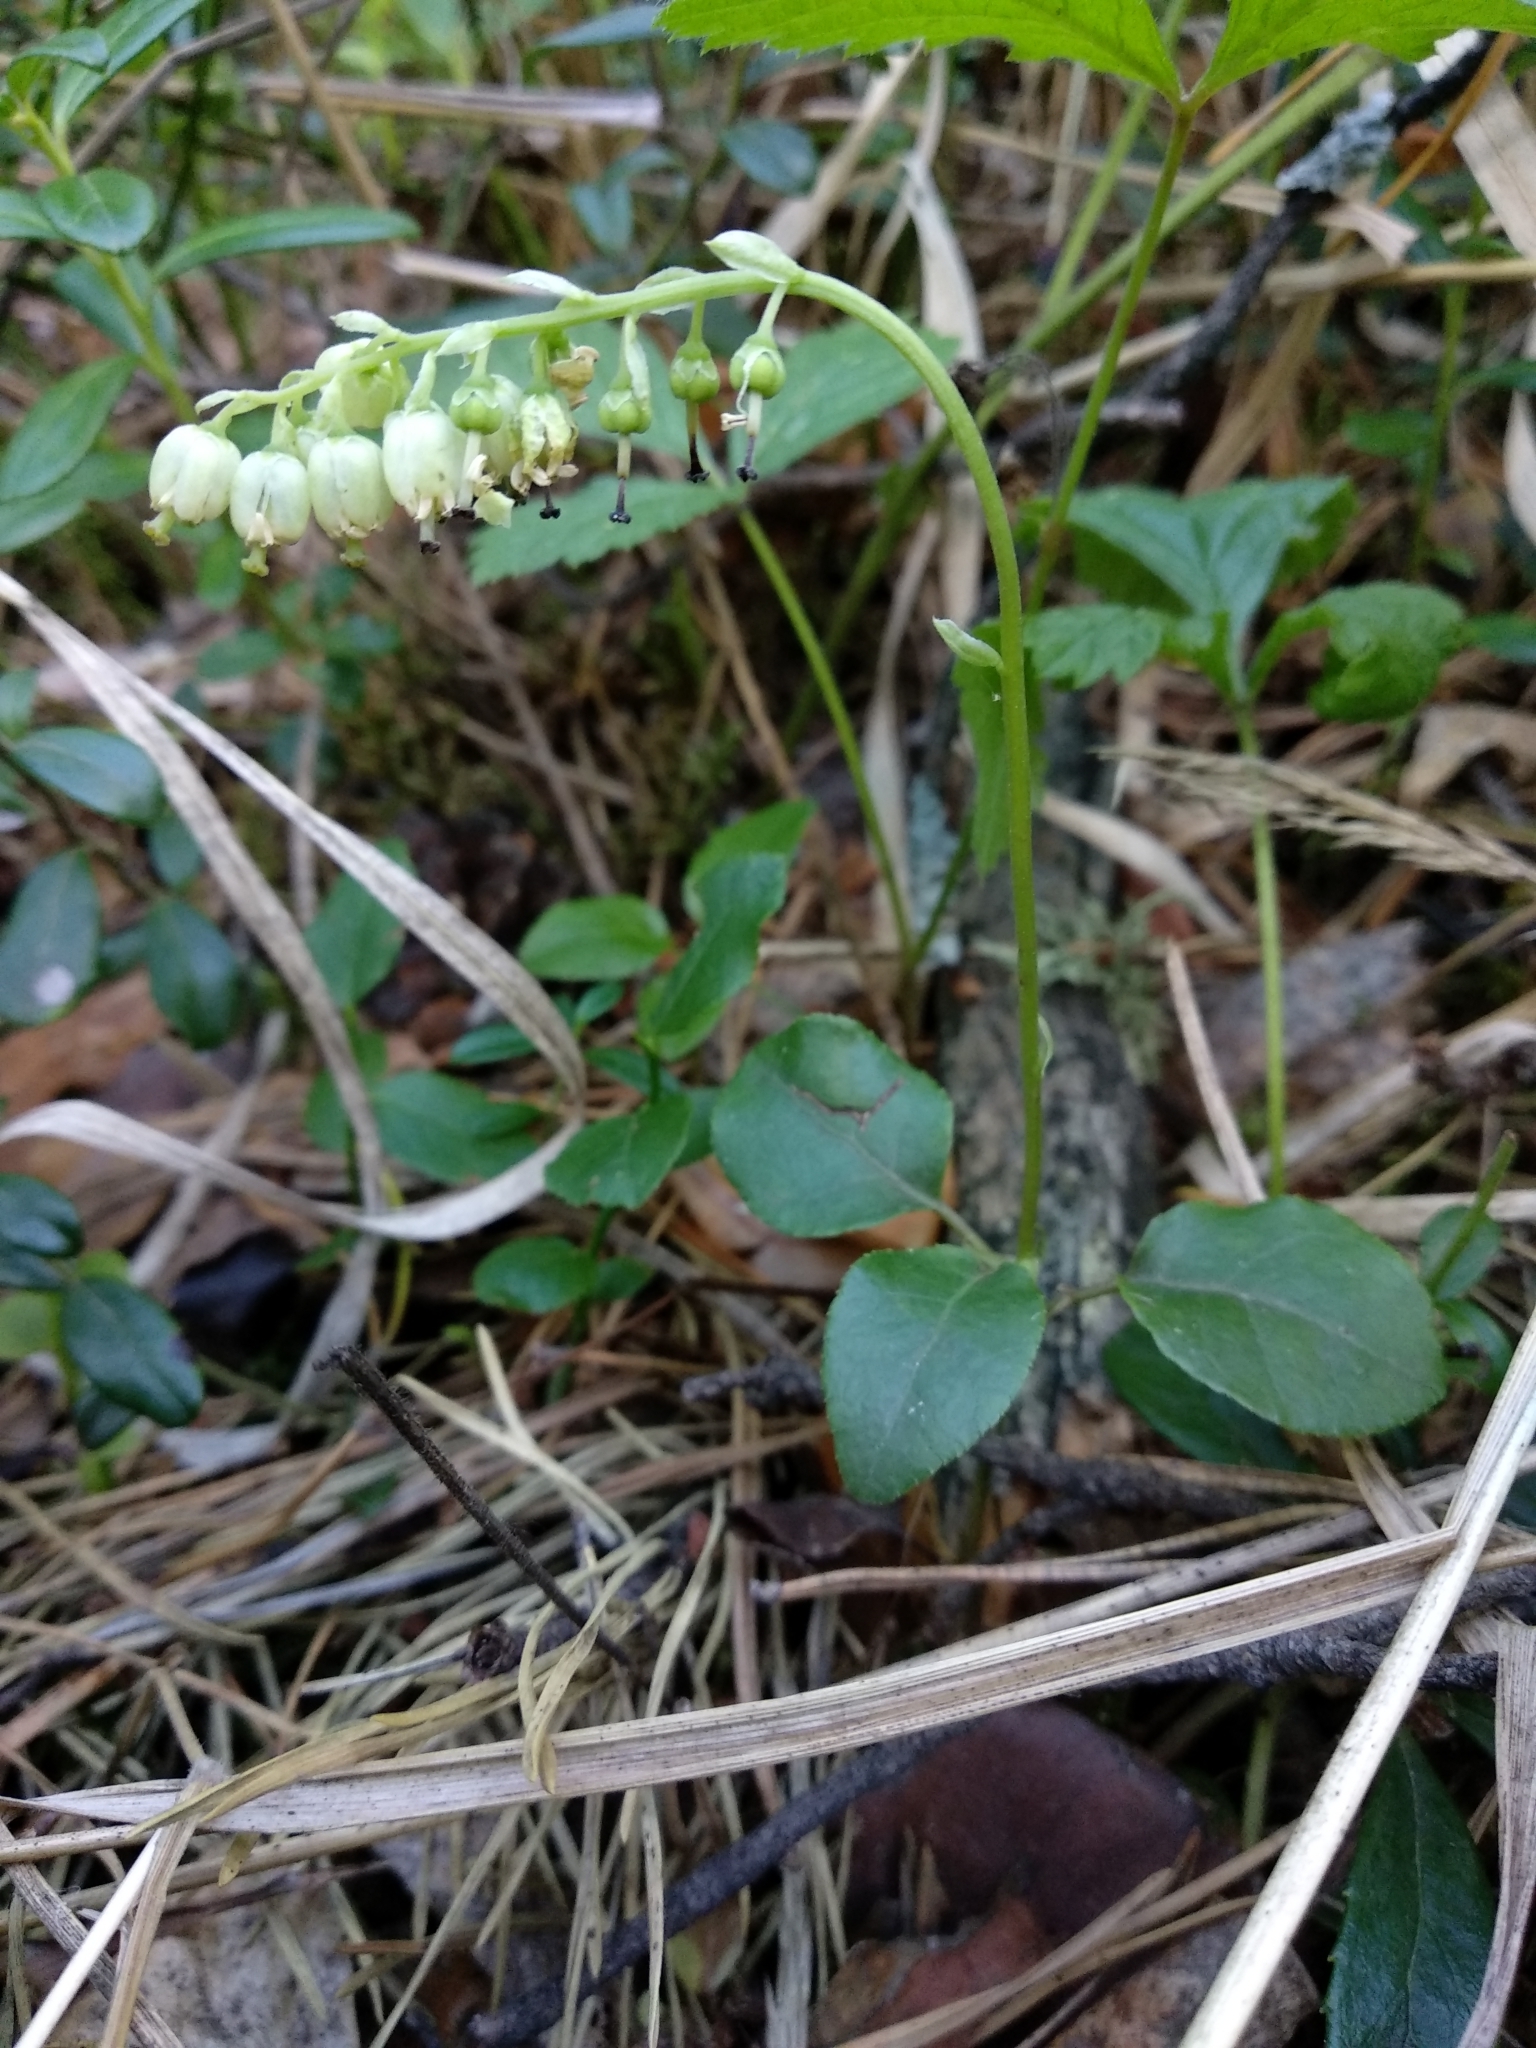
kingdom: Plantae
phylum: Tracheophyta
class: Magnoliopsida
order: Ericales
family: Ericaceae
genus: Orthilia
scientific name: Orthilia secunda
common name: One-sided orthilia
